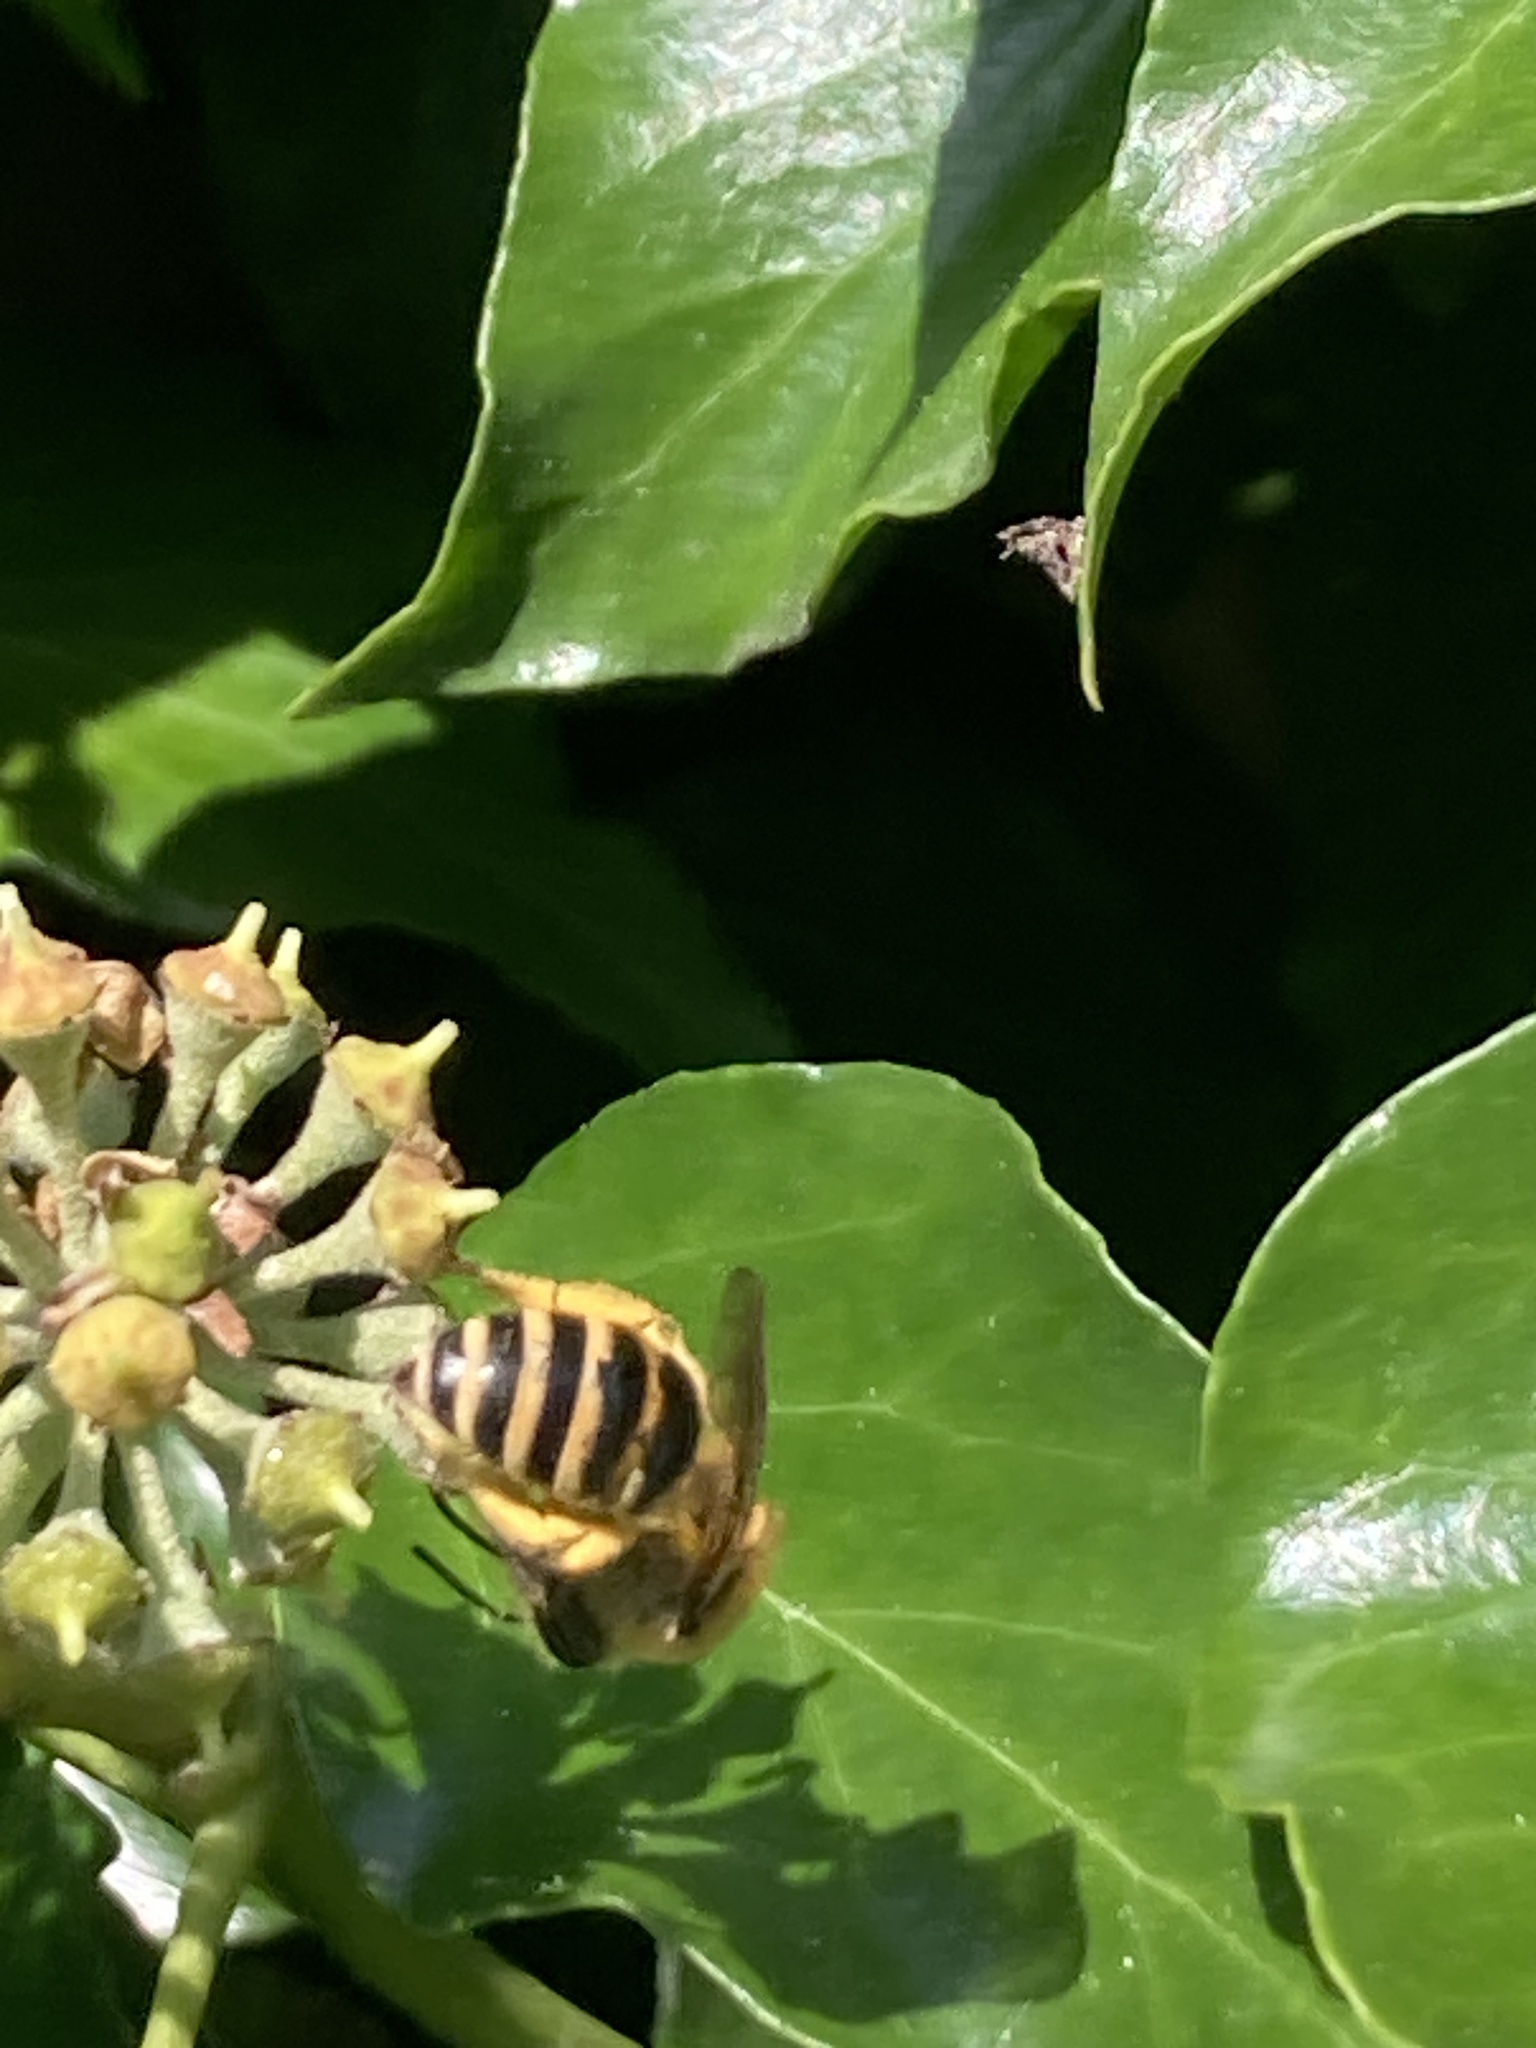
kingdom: Animalia
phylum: Arthropoda
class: Insecta
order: Hymenoptera
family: Colletidae
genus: Colletes
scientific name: Colletes hederae
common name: Ivy bee
